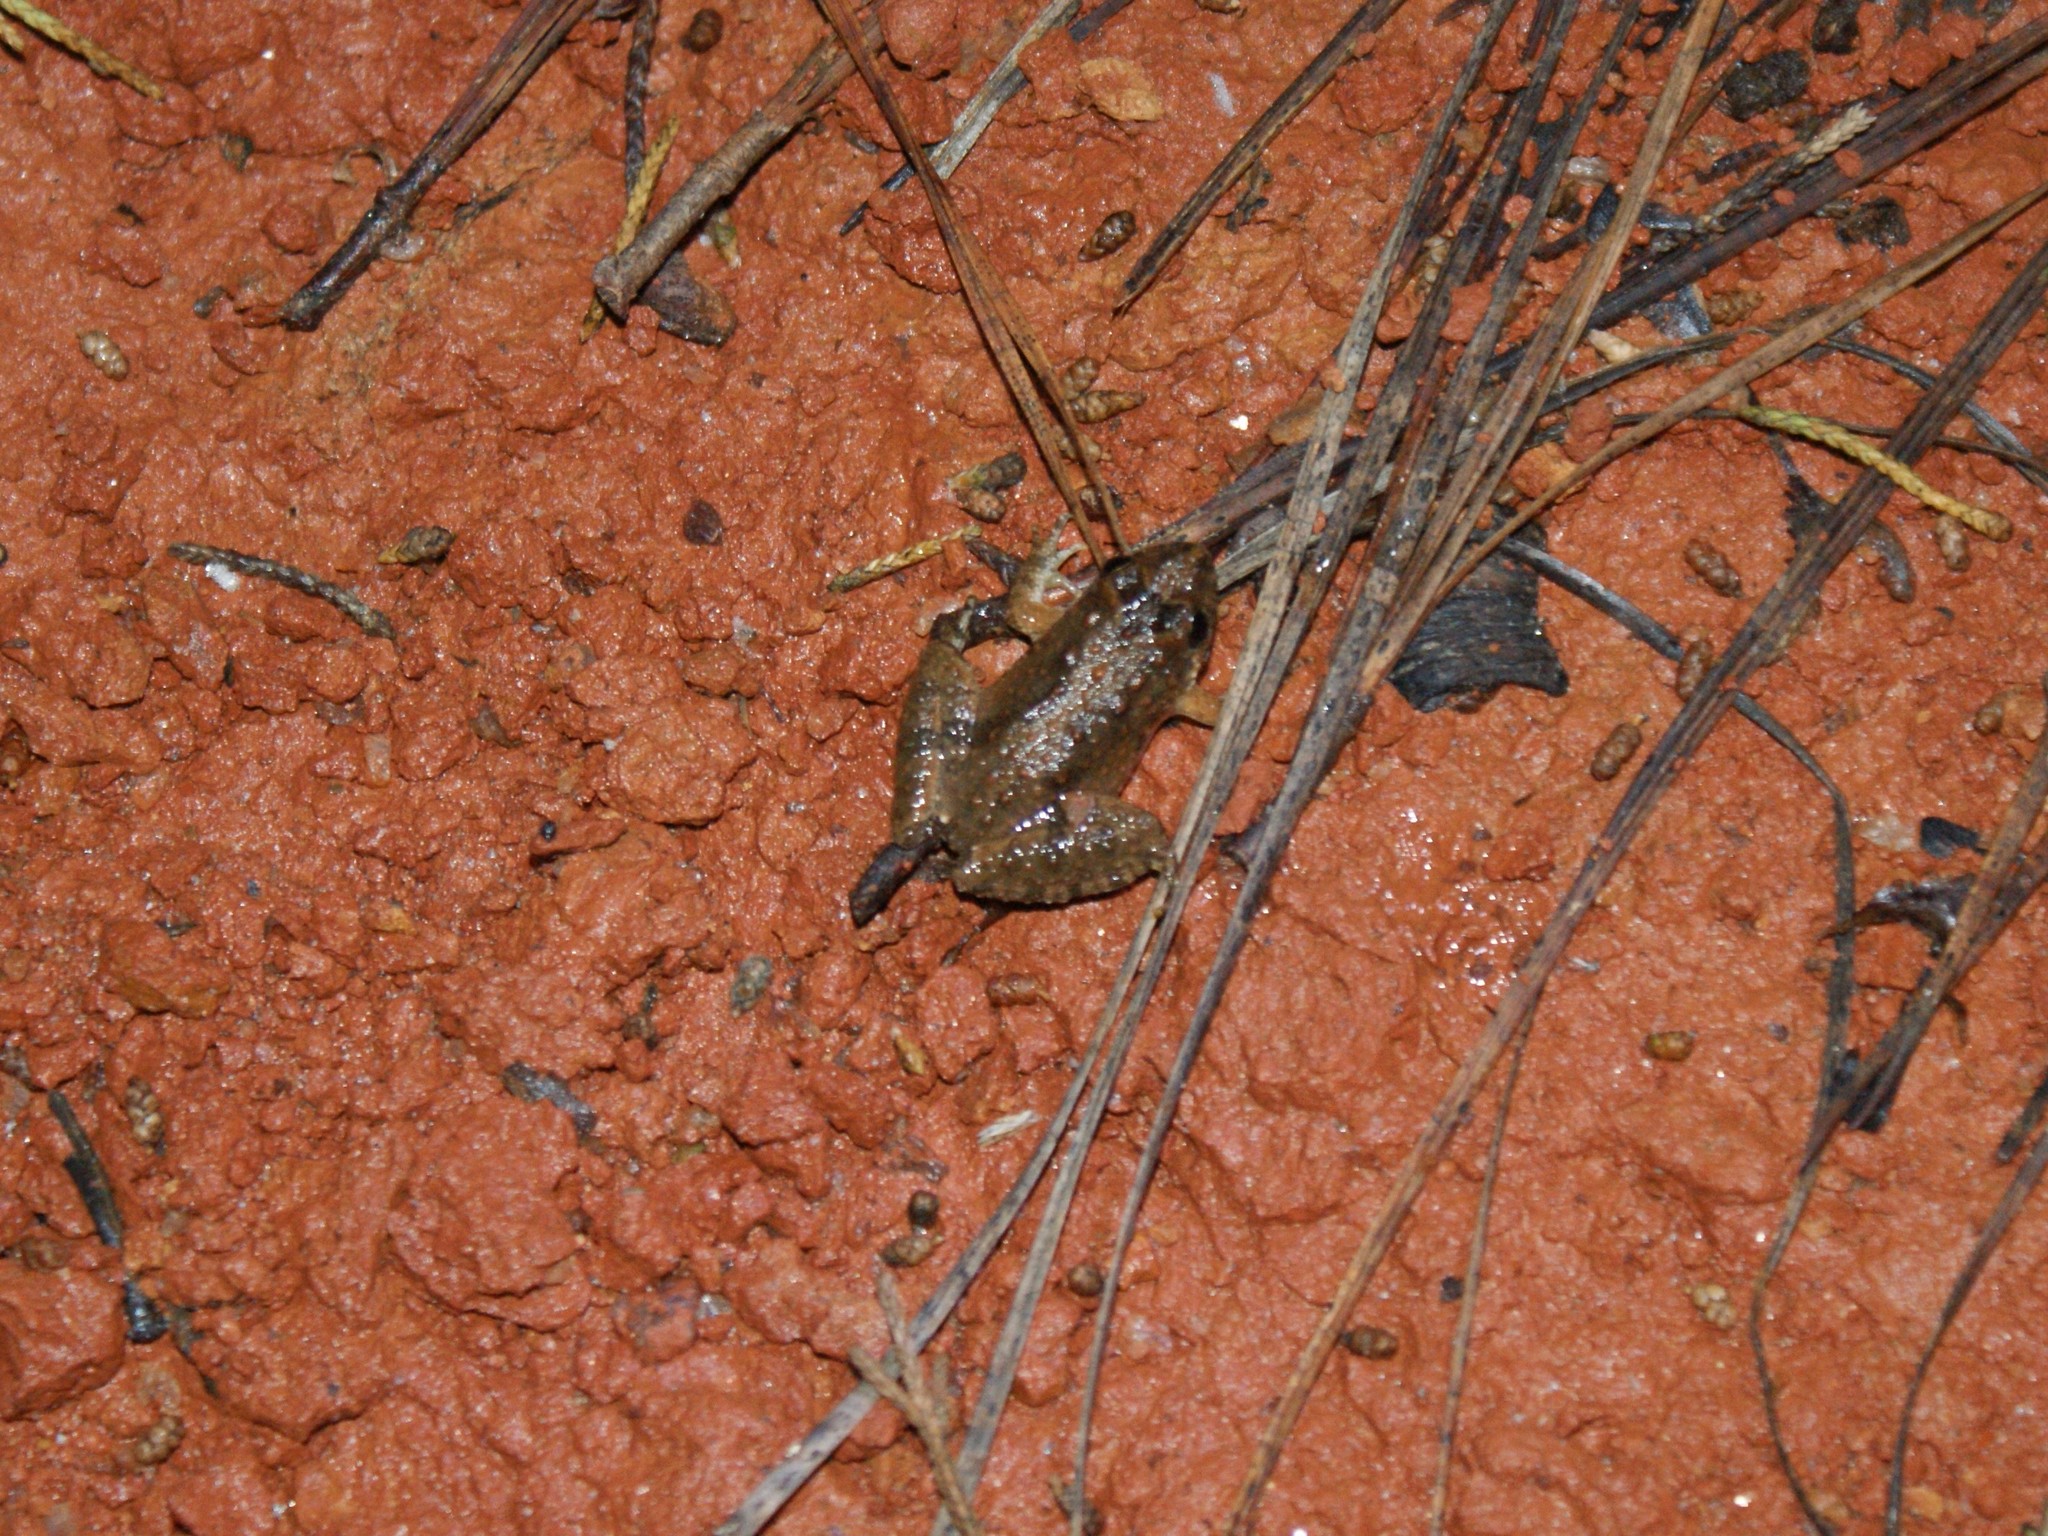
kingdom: Animalia
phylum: Chordata
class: Amphibia
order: Anura
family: Hylidae
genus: Acris
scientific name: Acris crepitans
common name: Northern cricket frog
